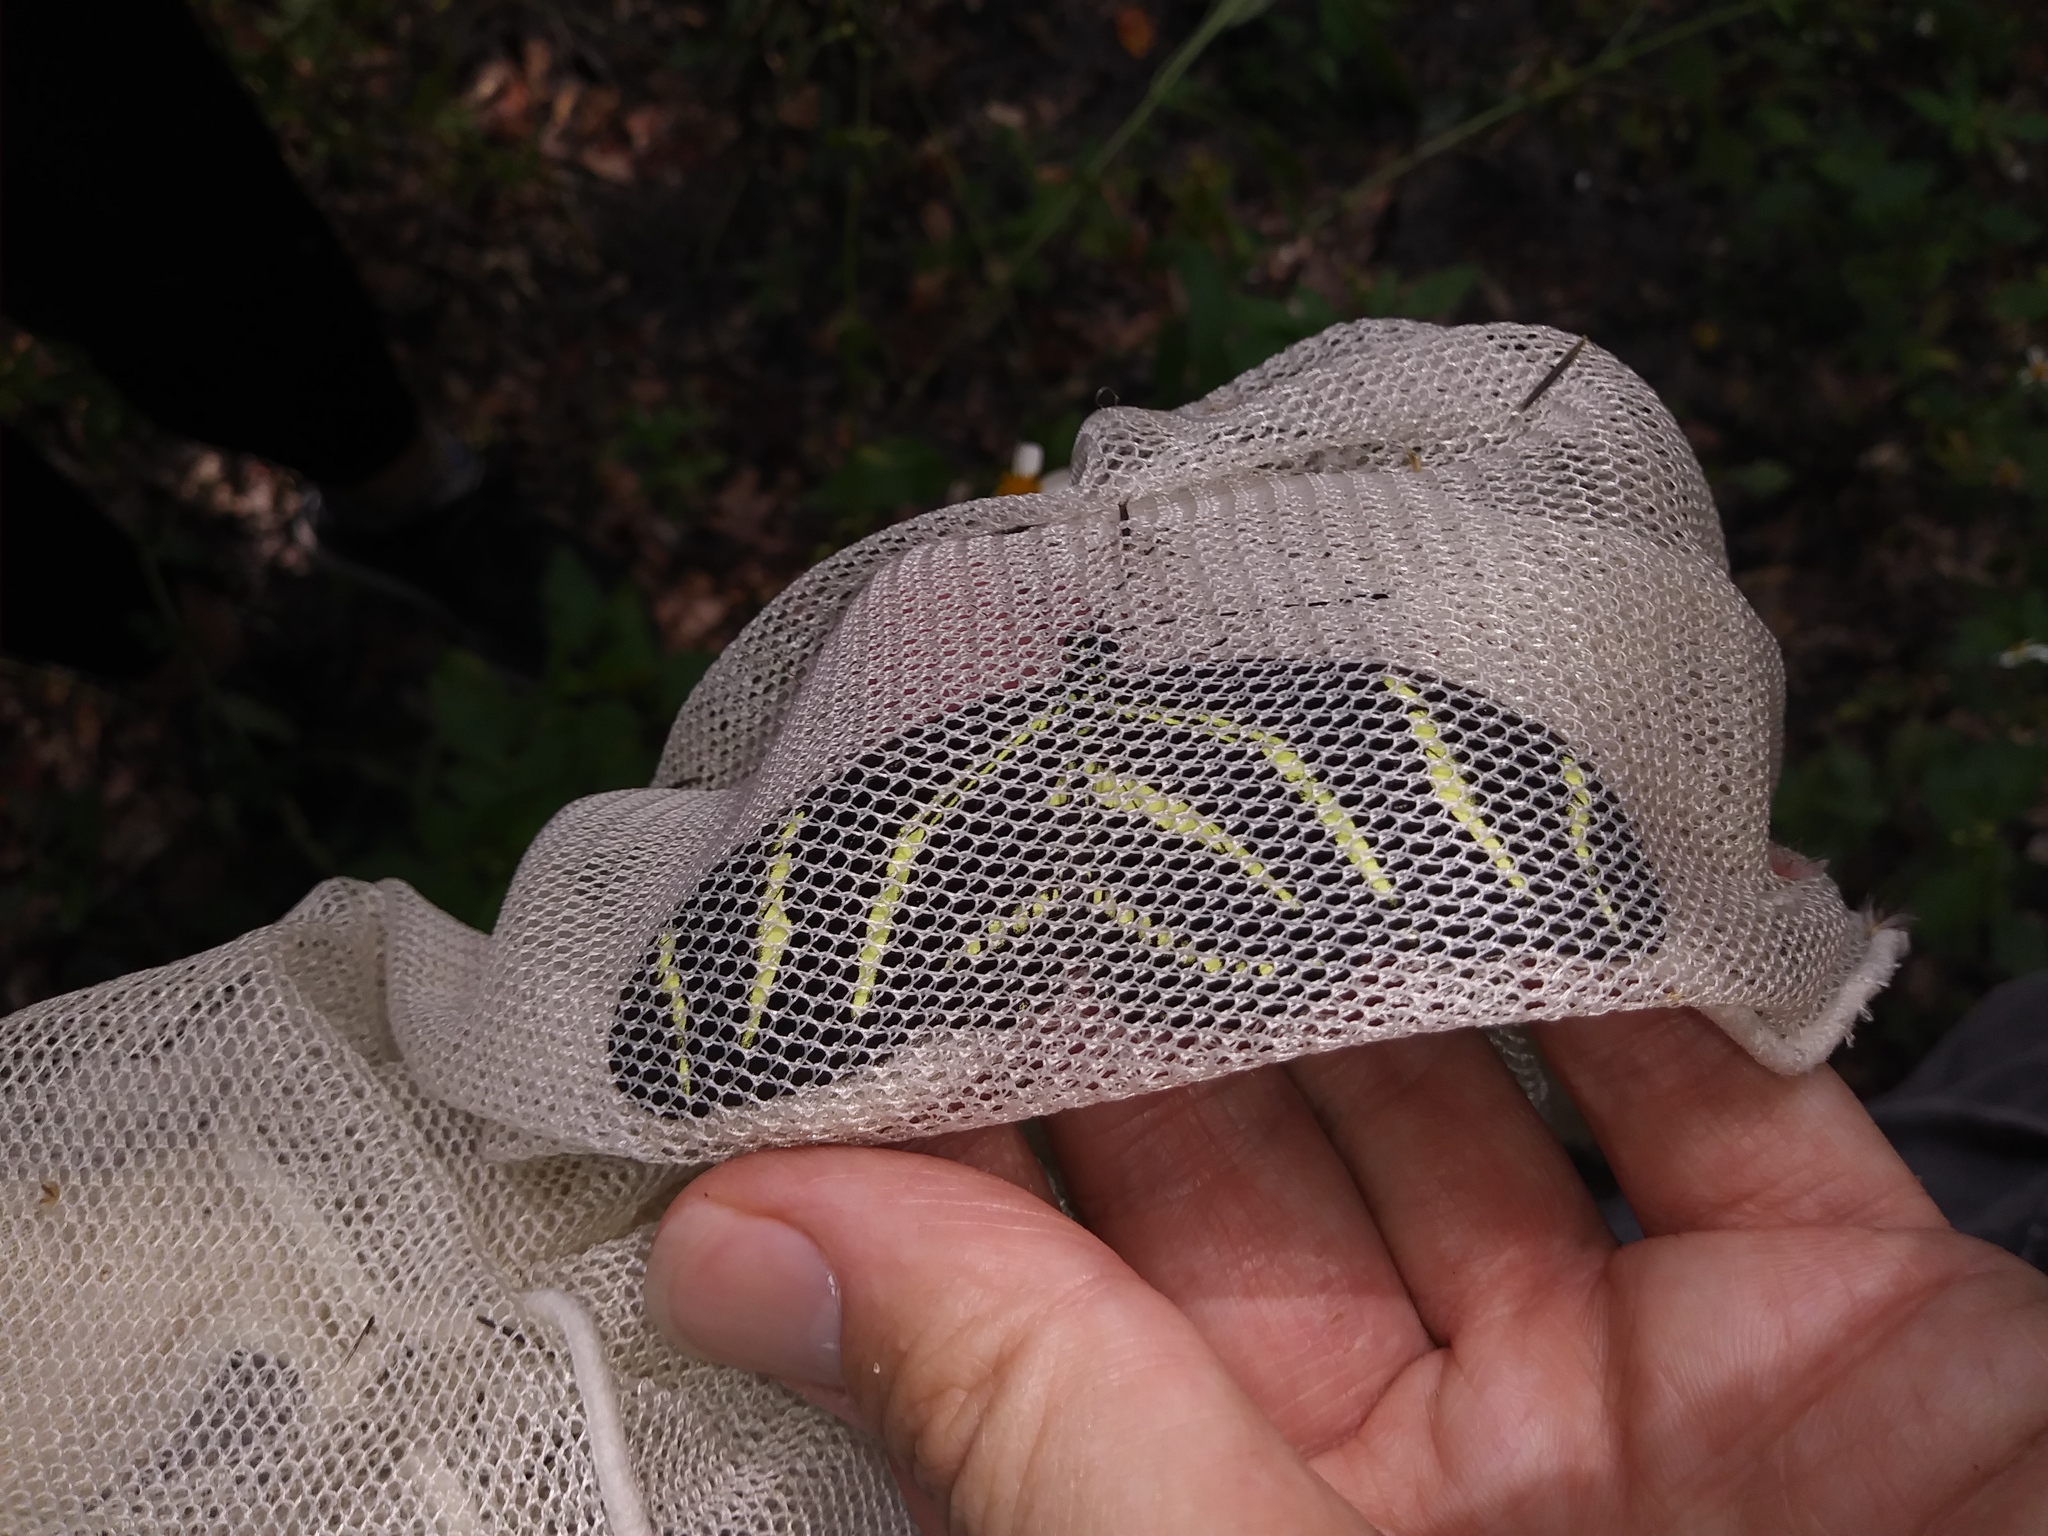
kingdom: Animalia
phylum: Arthropoda
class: Insecta
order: Lepidoptera
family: Nymphalidae
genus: Heliconius
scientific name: Heliconius charithonia
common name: Zebra long wing
